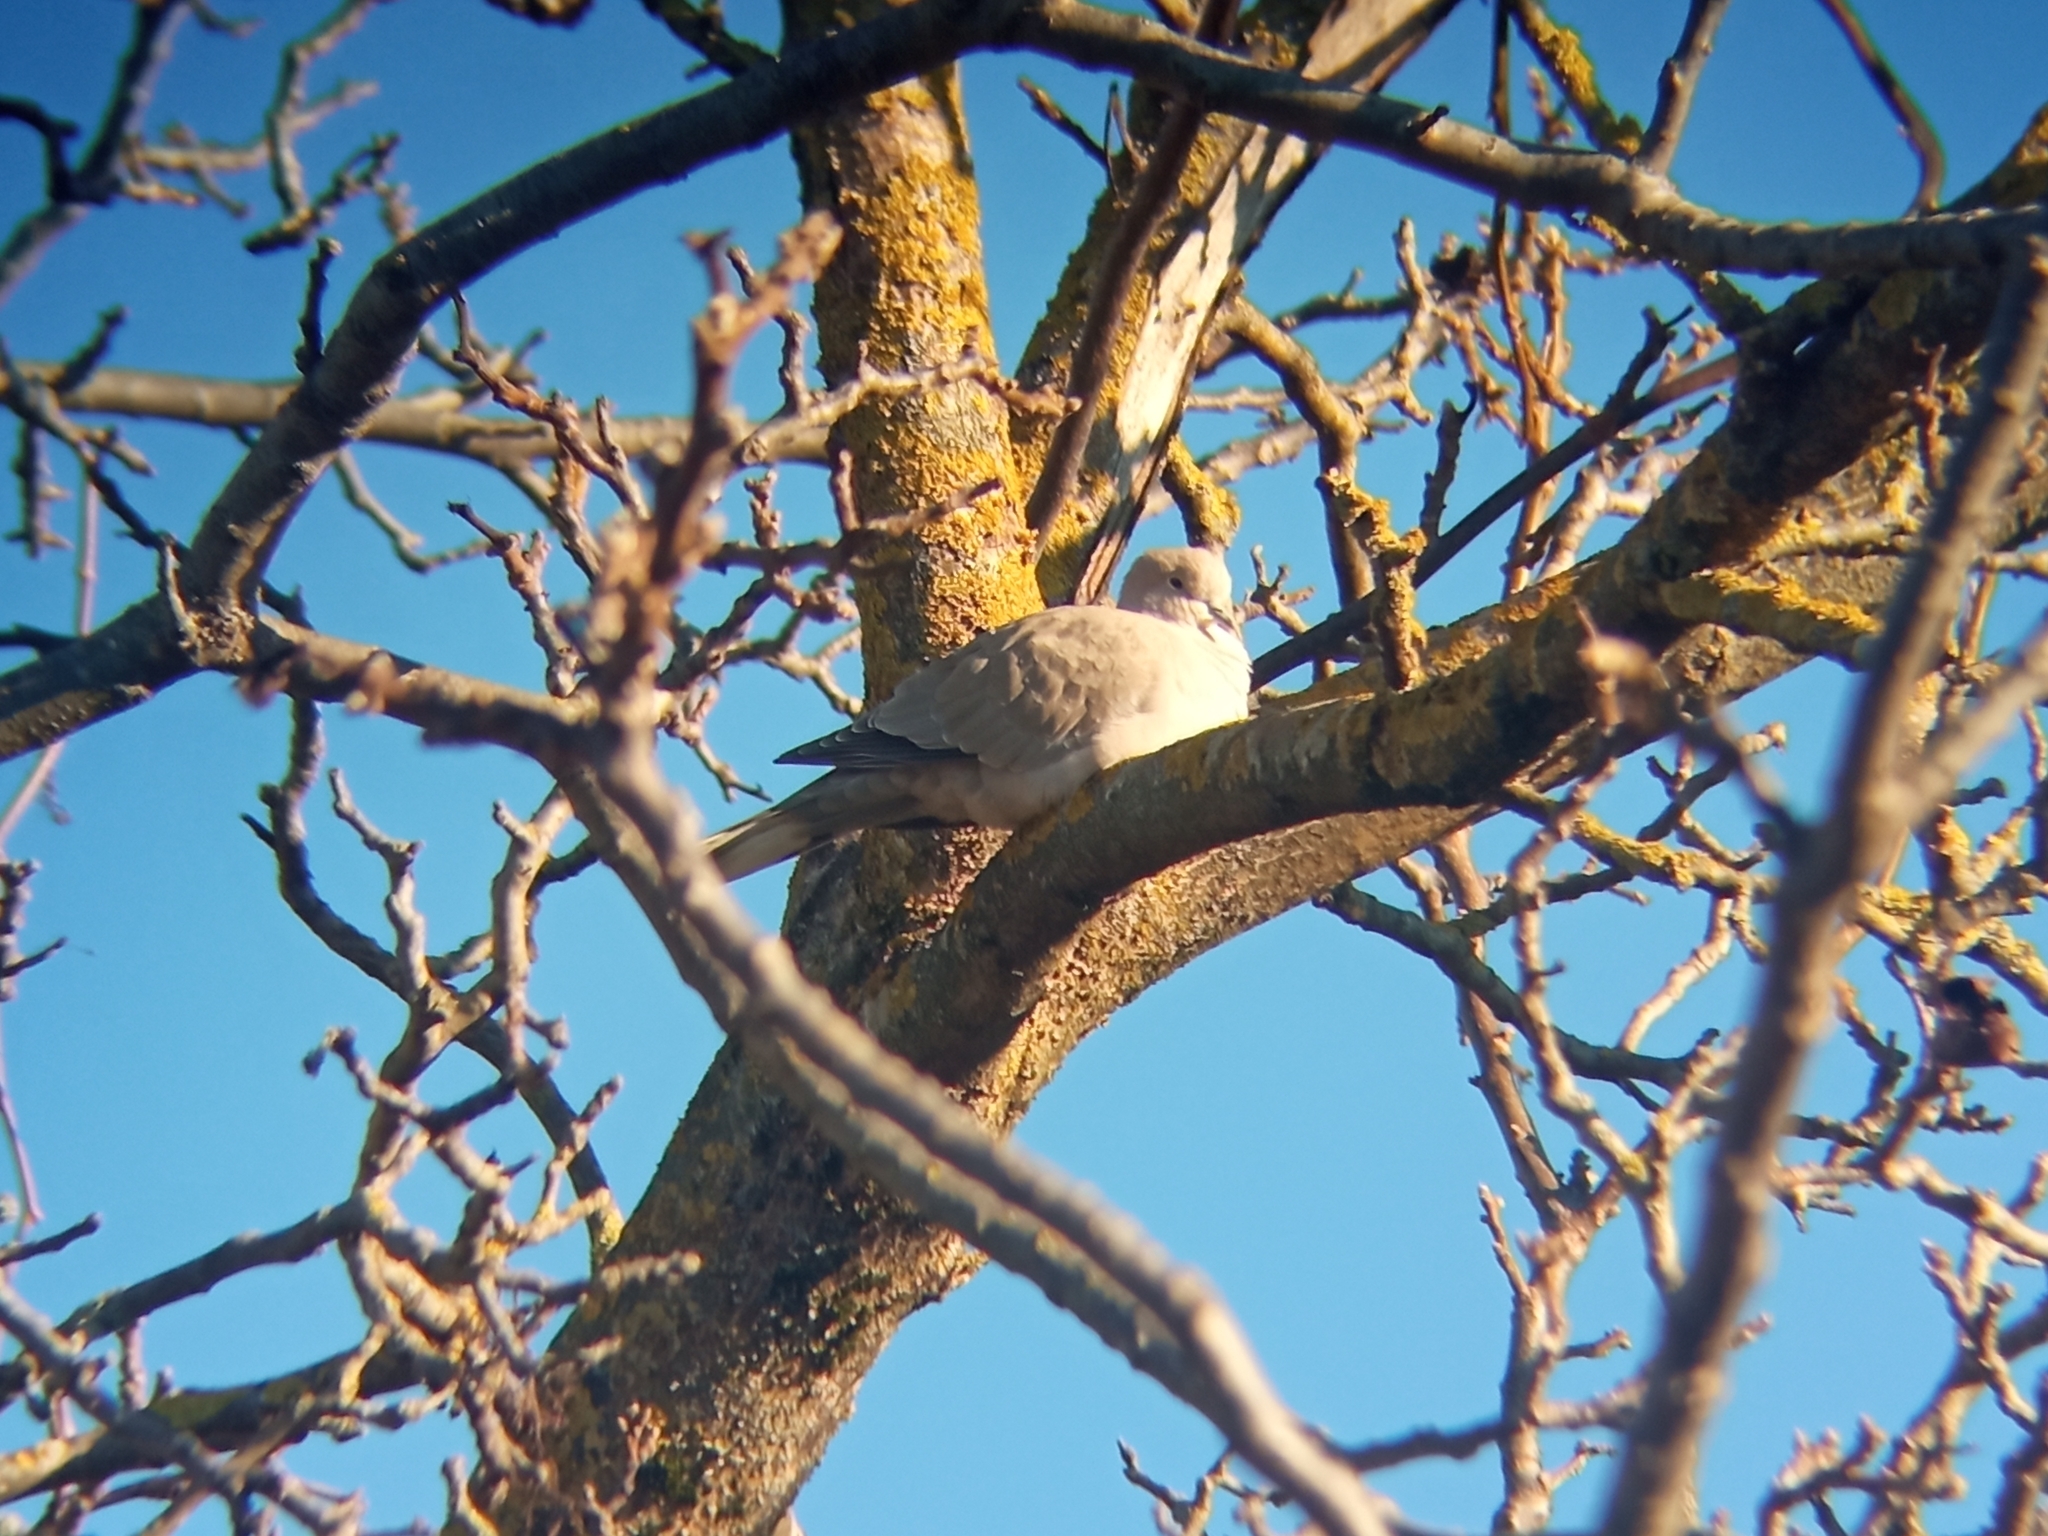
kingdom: Animalia
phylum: Chordata
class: Aves
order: Columbiformes
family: Columbidae
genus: Streptopelia
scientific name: Streptopelia decaocto
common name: Eurasian collared dove
